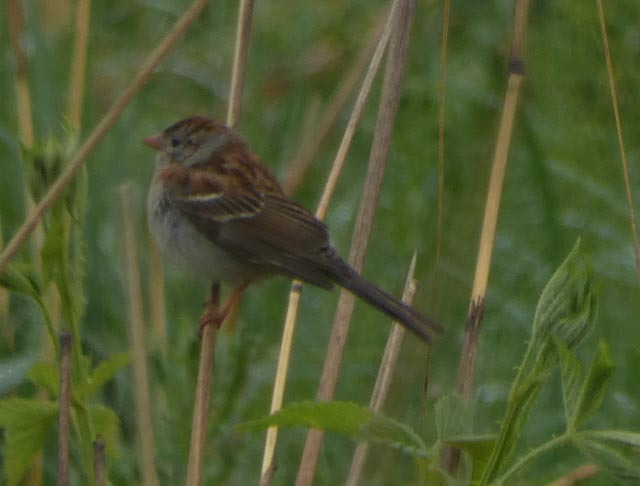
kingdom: Animalia
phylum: Chordata
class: Aves
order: Passeriformes
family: Passerellidae
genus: Spizella
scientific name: Spizella pusilla
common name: Field sparrow
